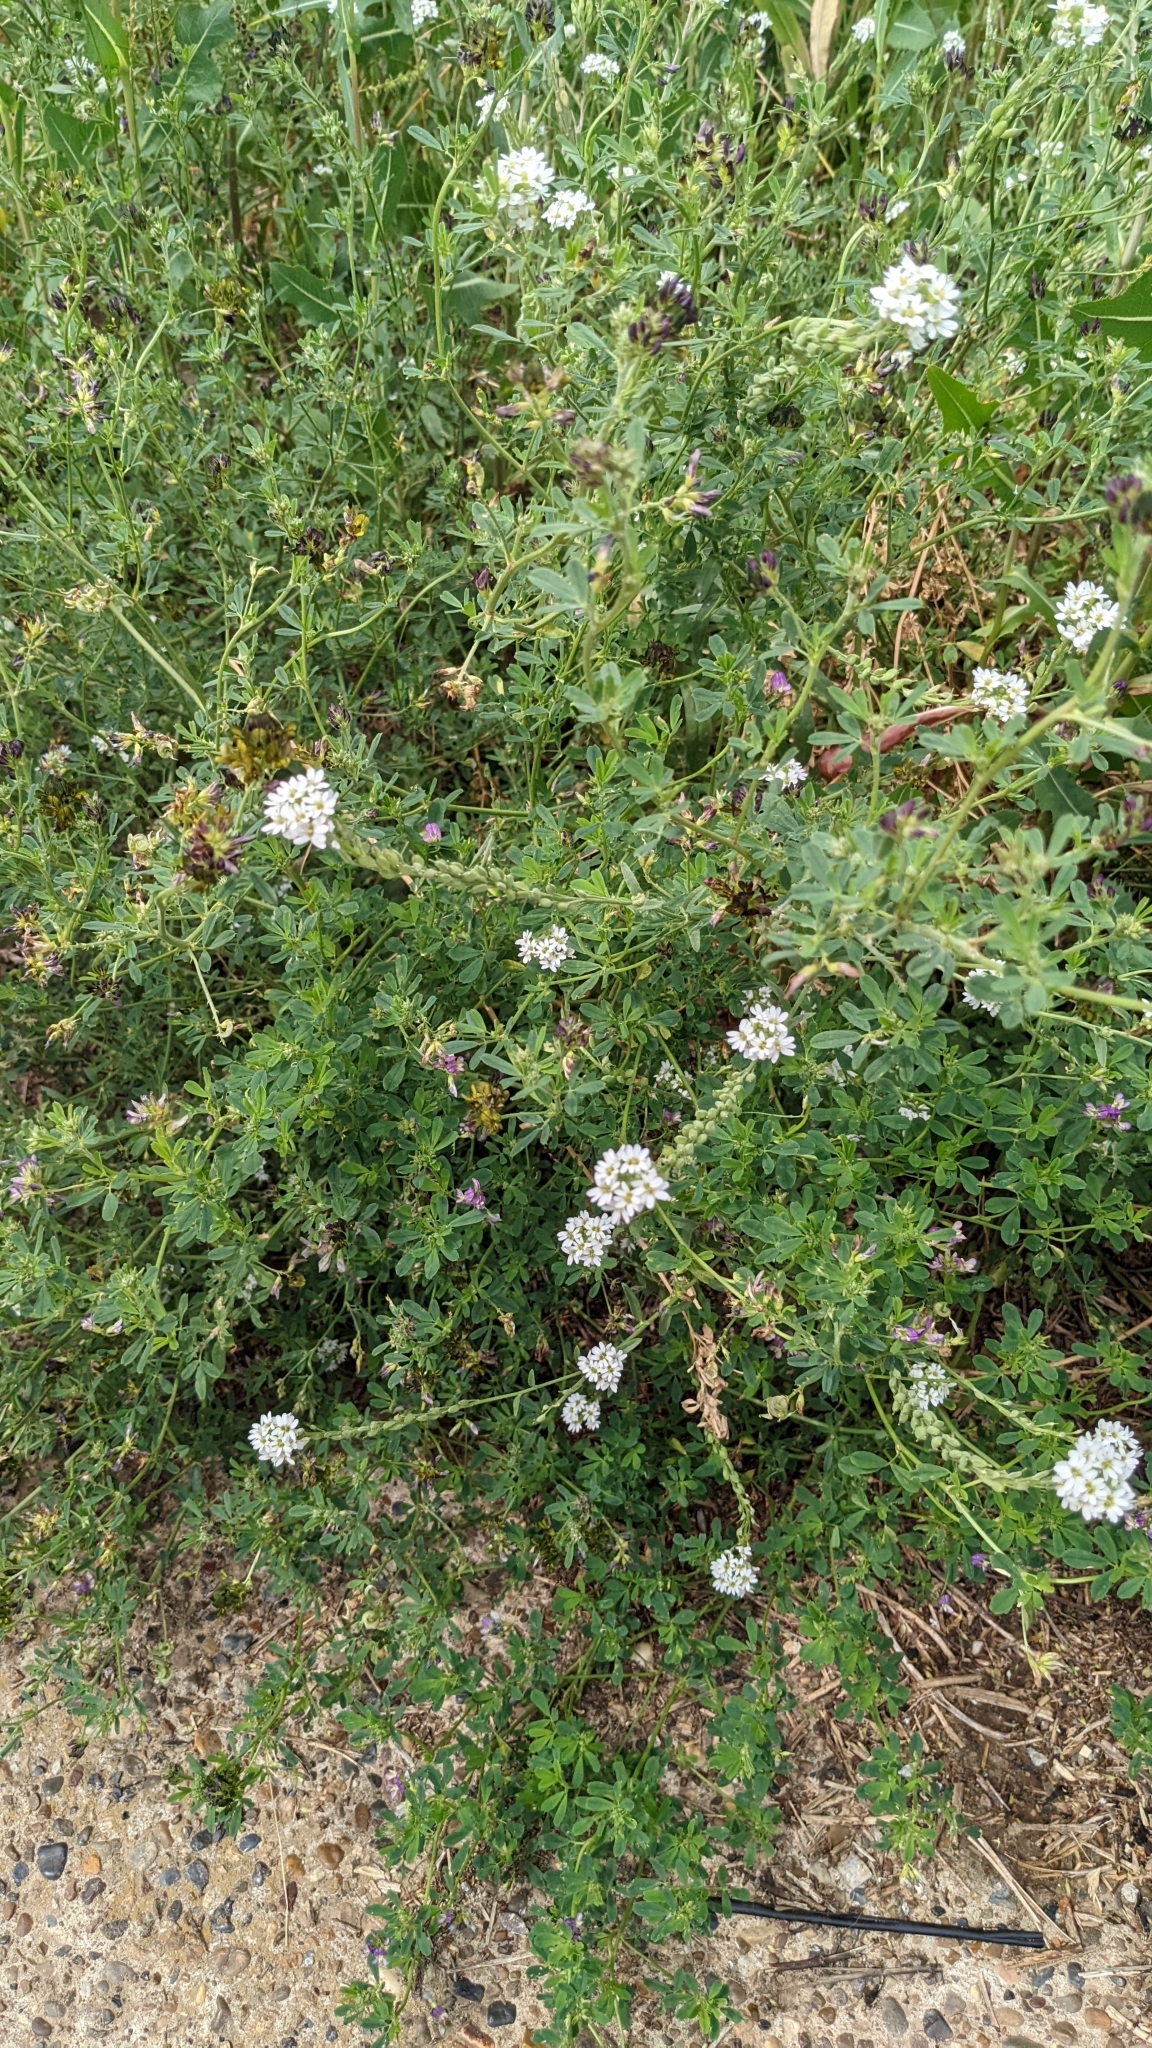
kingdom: Plantae
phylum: Tracheophyta
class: Magnoliopsida
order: Brassicales
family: Brassicaceae
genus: Berteroa
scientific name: Berteroa incana
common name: Hoary alison
